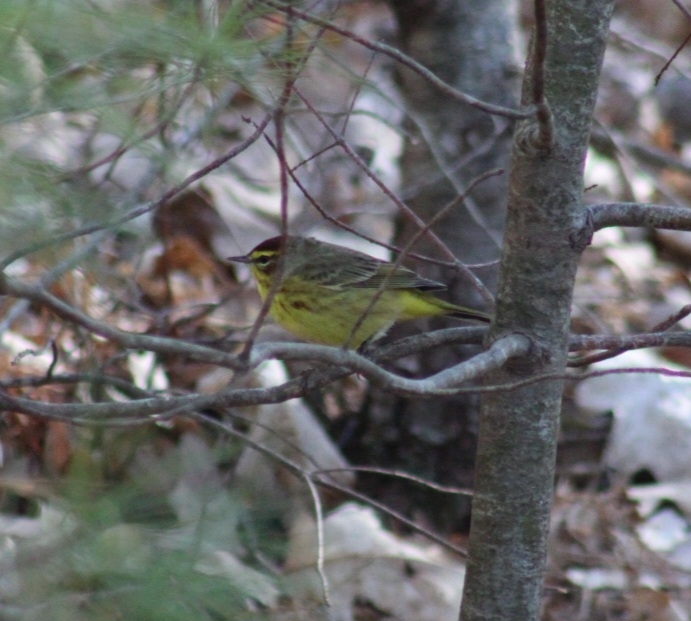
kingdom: Animalia
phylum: Chordata
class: Aves
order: Passeriformes
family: Parulidae
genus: Setophaga
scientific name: Setophaga palmarum
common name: Palm warbler
